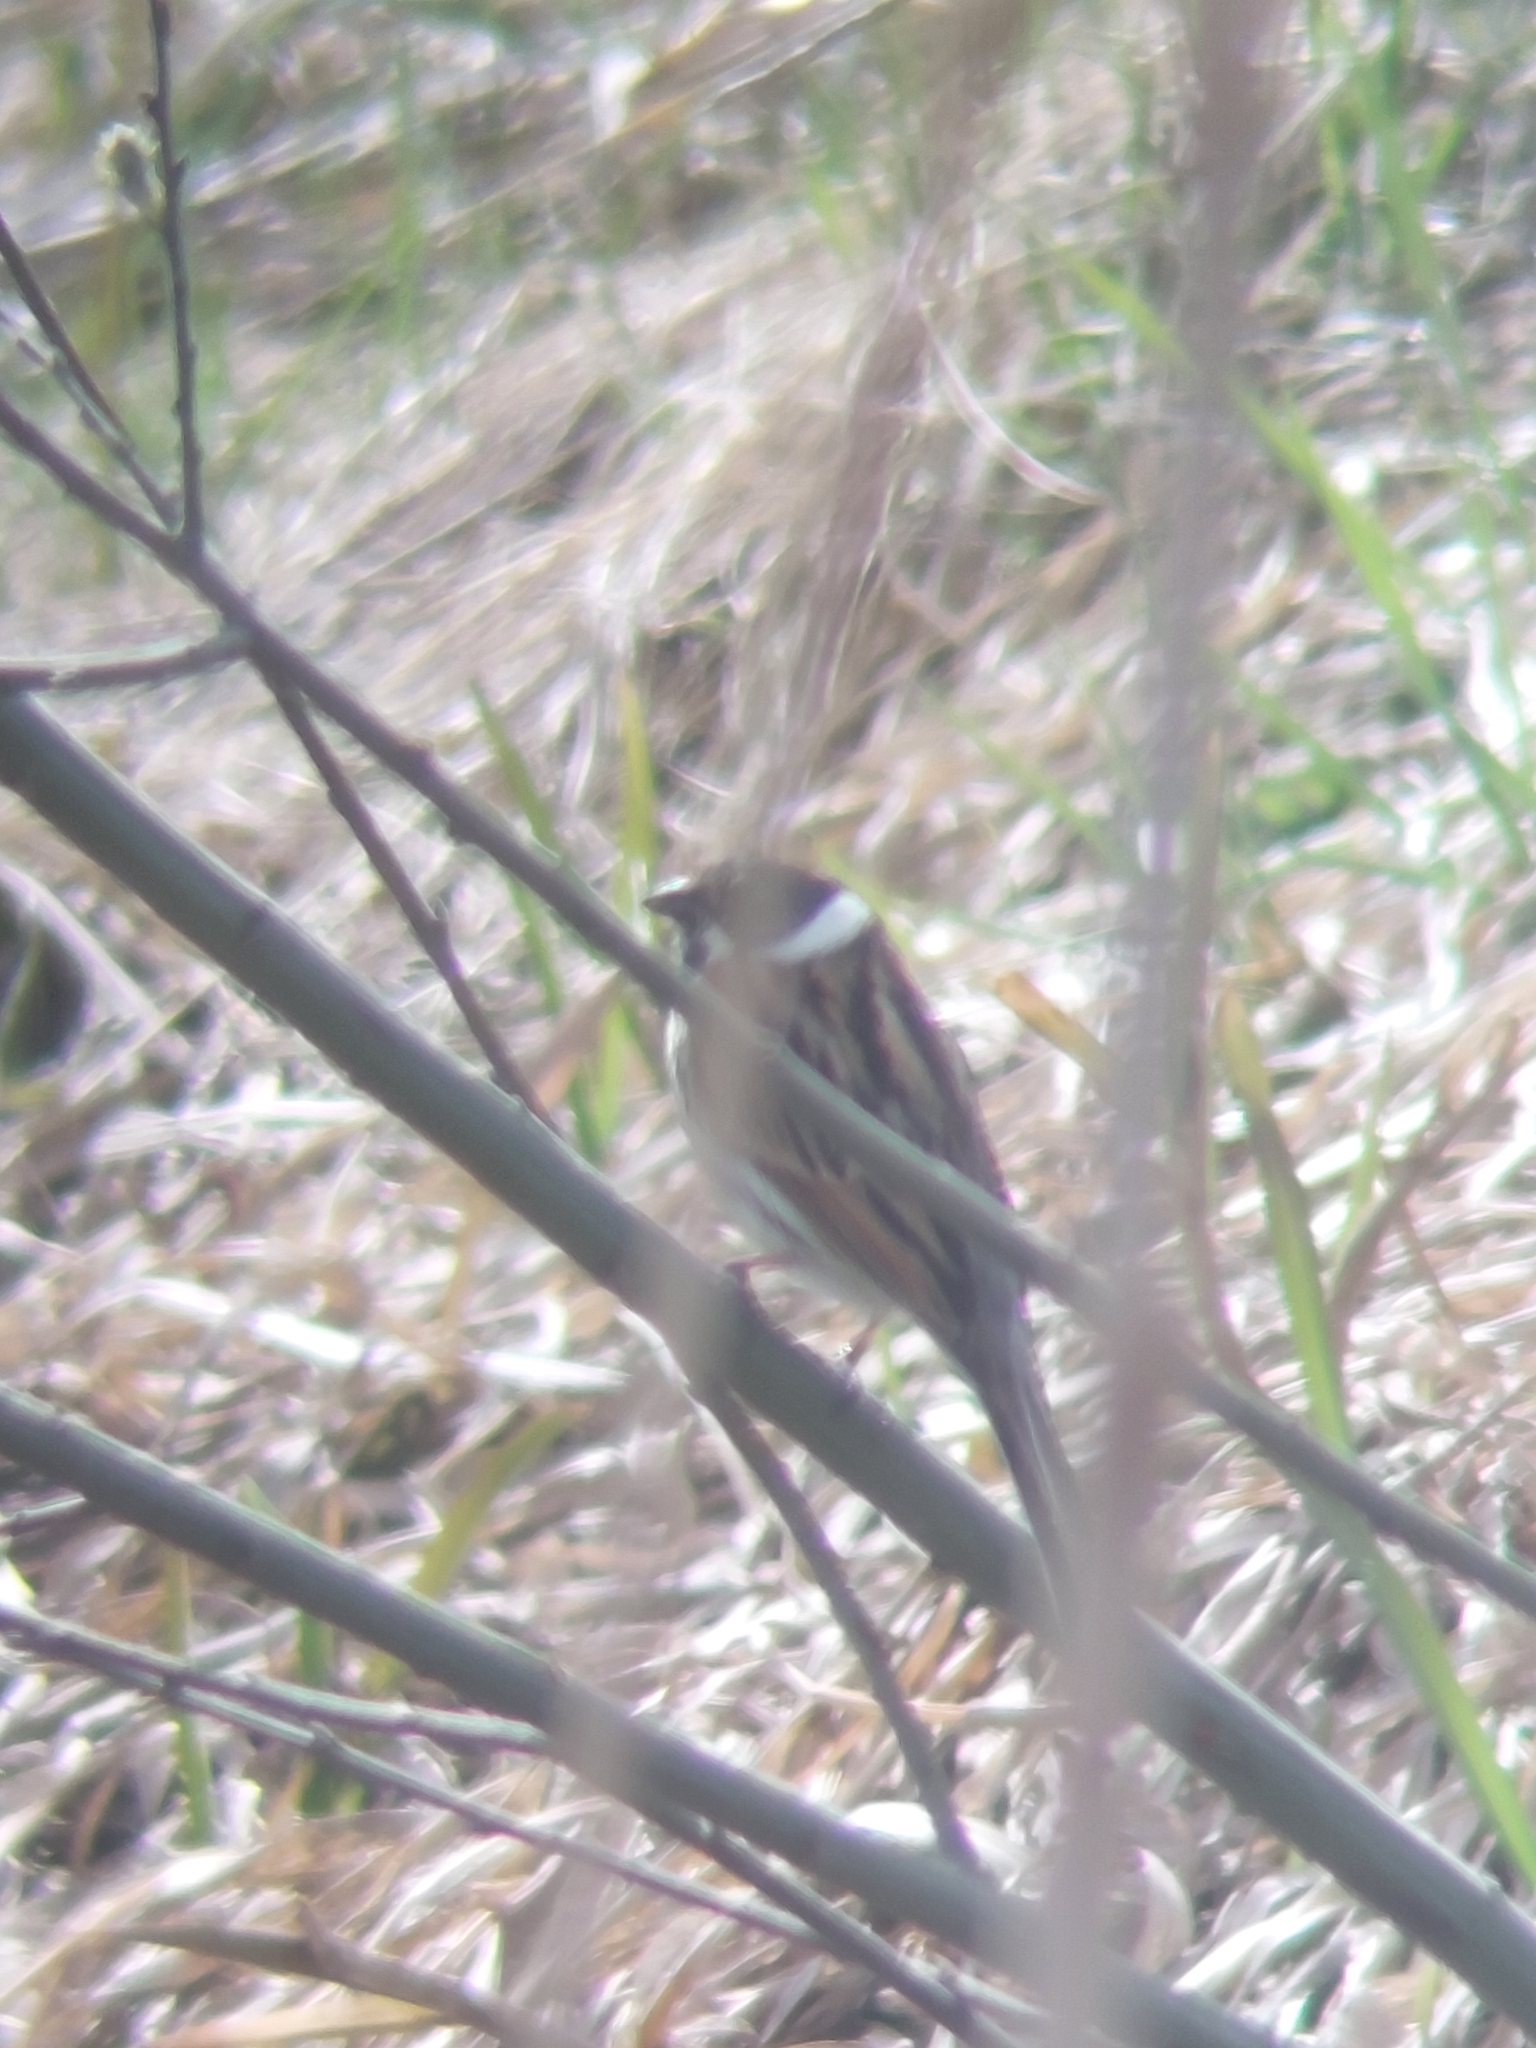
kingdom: Animalia
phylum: Chordata
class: Aves
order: Passeriformes
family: Emberizidae
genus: Emberiza
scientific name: Emberiza schoeniclus
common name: Reed bunting
